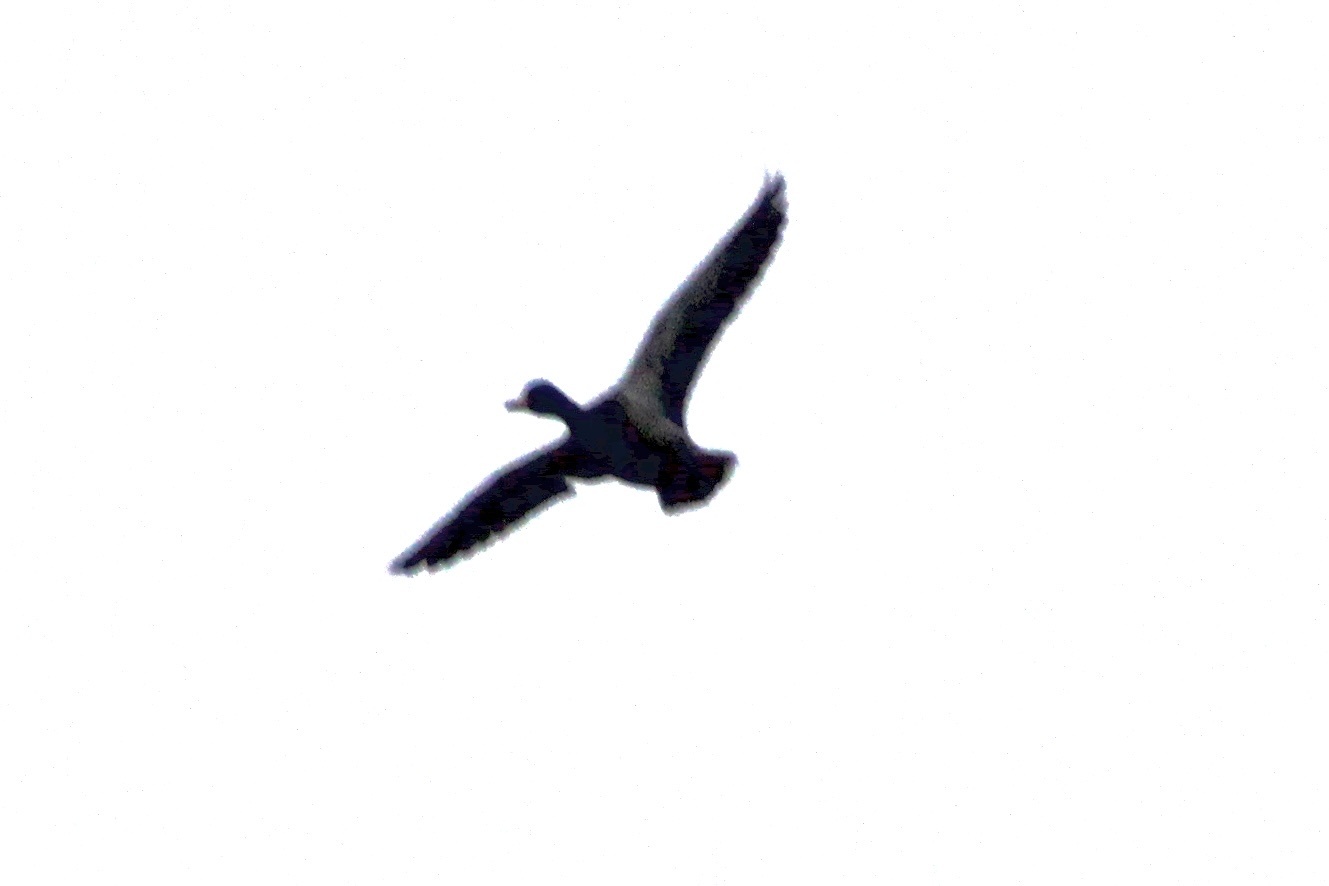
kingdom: Animalia
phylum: Chordata
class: Aves
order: Anseriformes
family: Anatidae
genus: Anas
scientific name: Anas platyrhynchos
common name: Mallard
